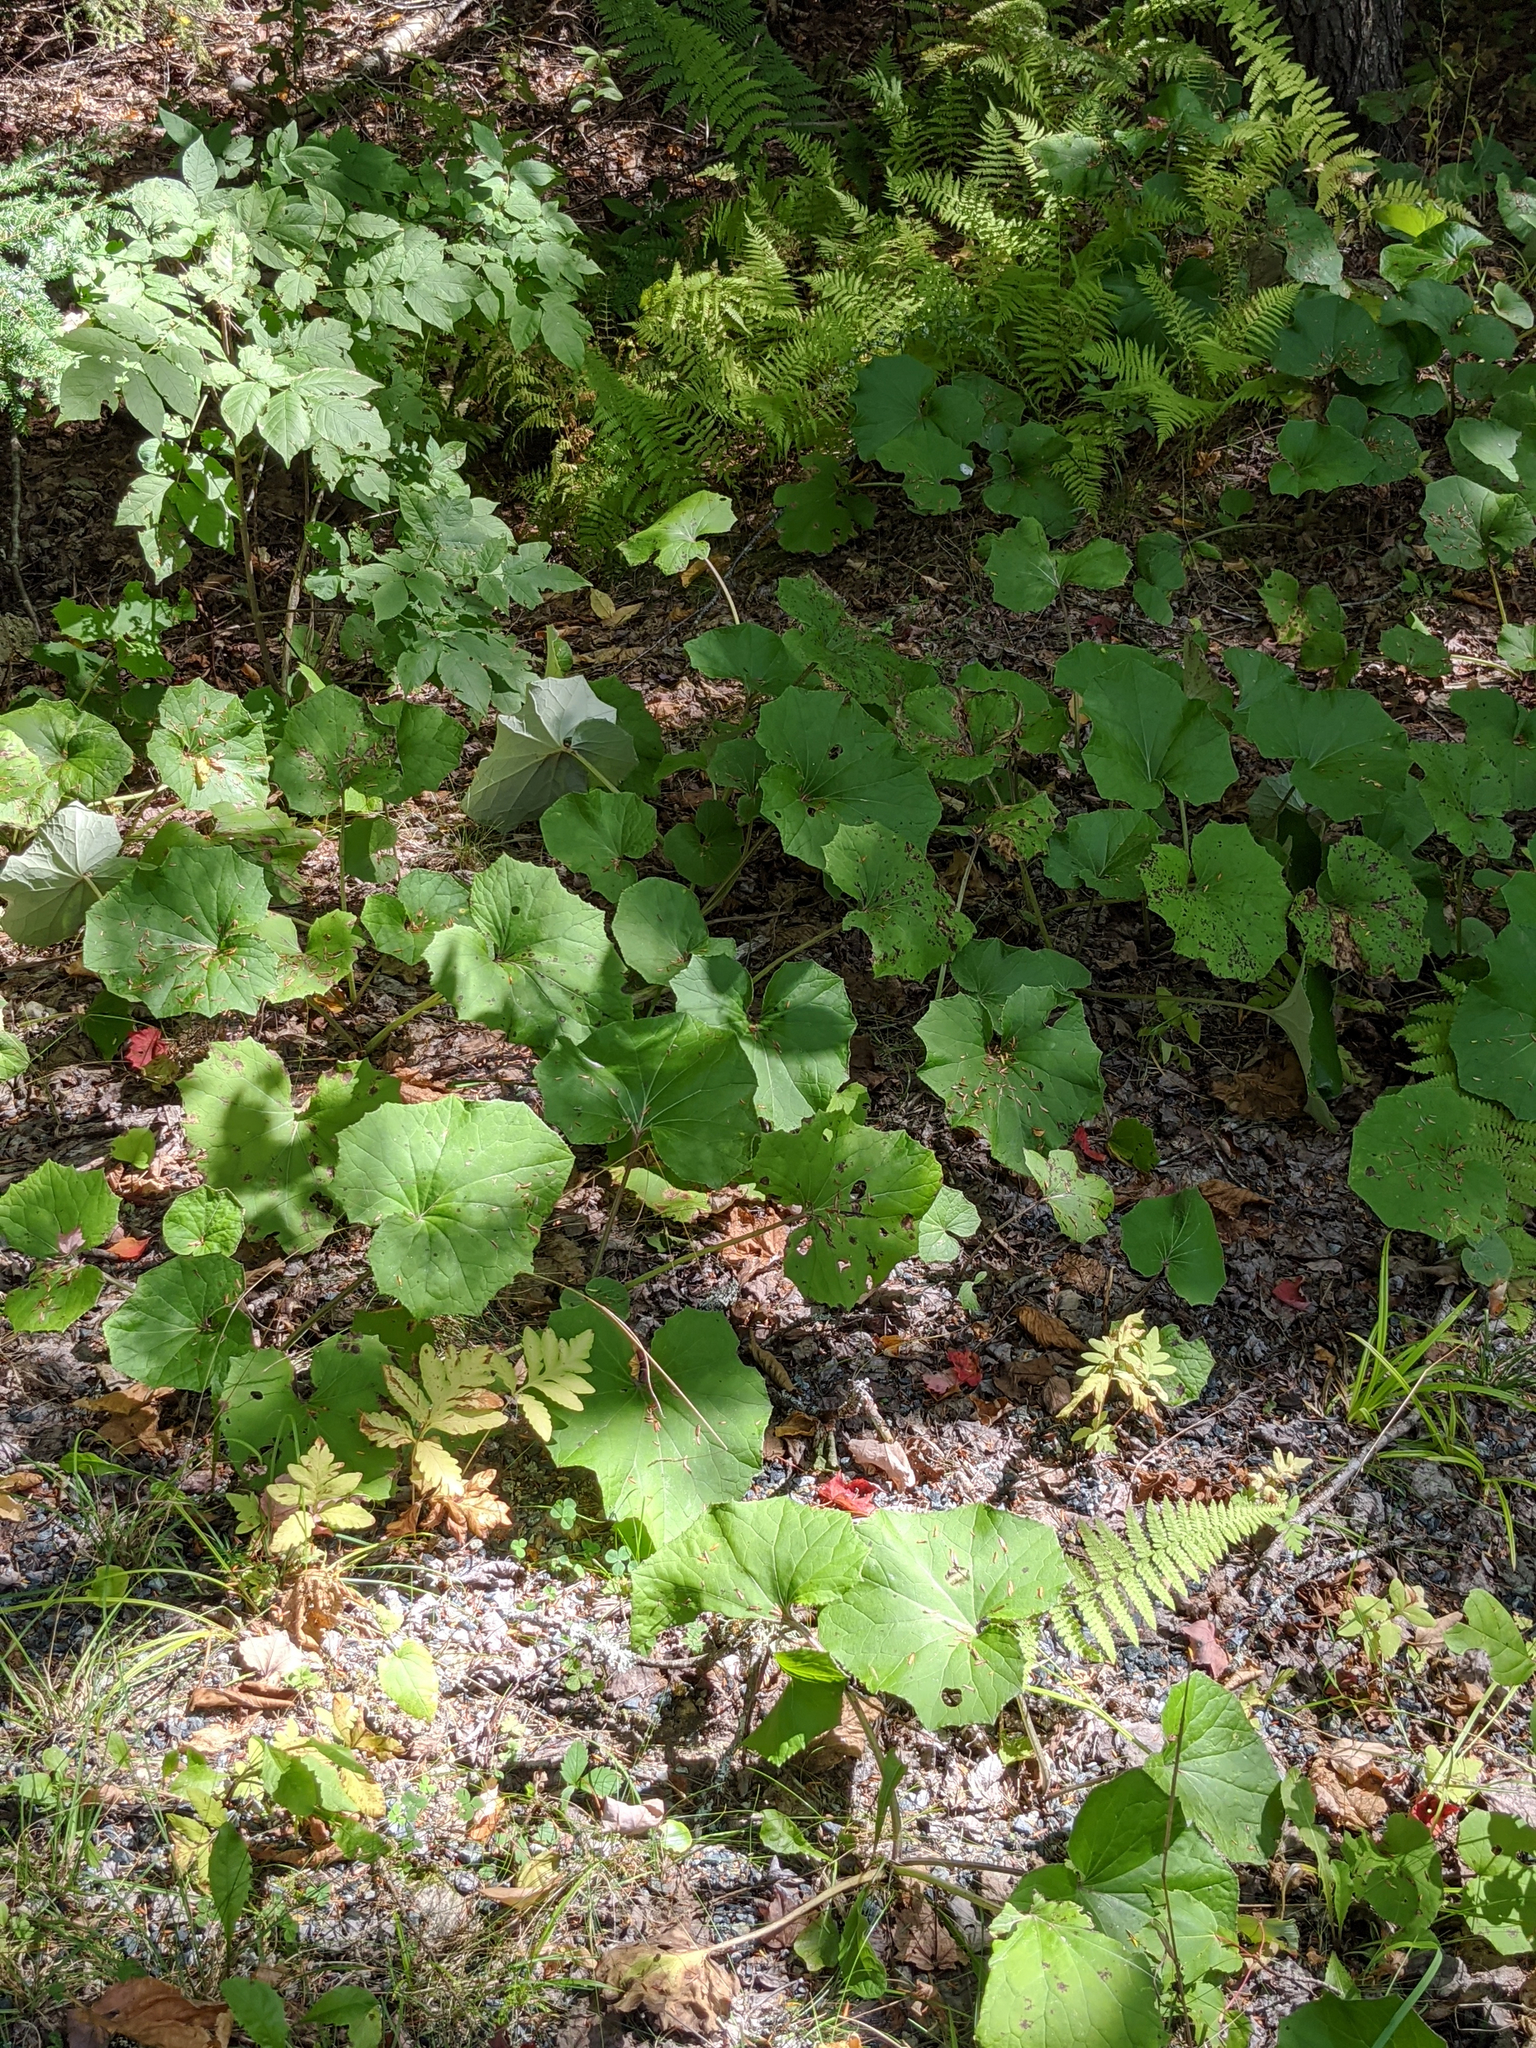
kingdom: Plantae
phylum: Tracheophyta
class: Magnoliopsida
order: Asterales
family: Asteraceae
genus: Tussilago
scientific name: Tussilago farfara
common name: Coltsfoot
